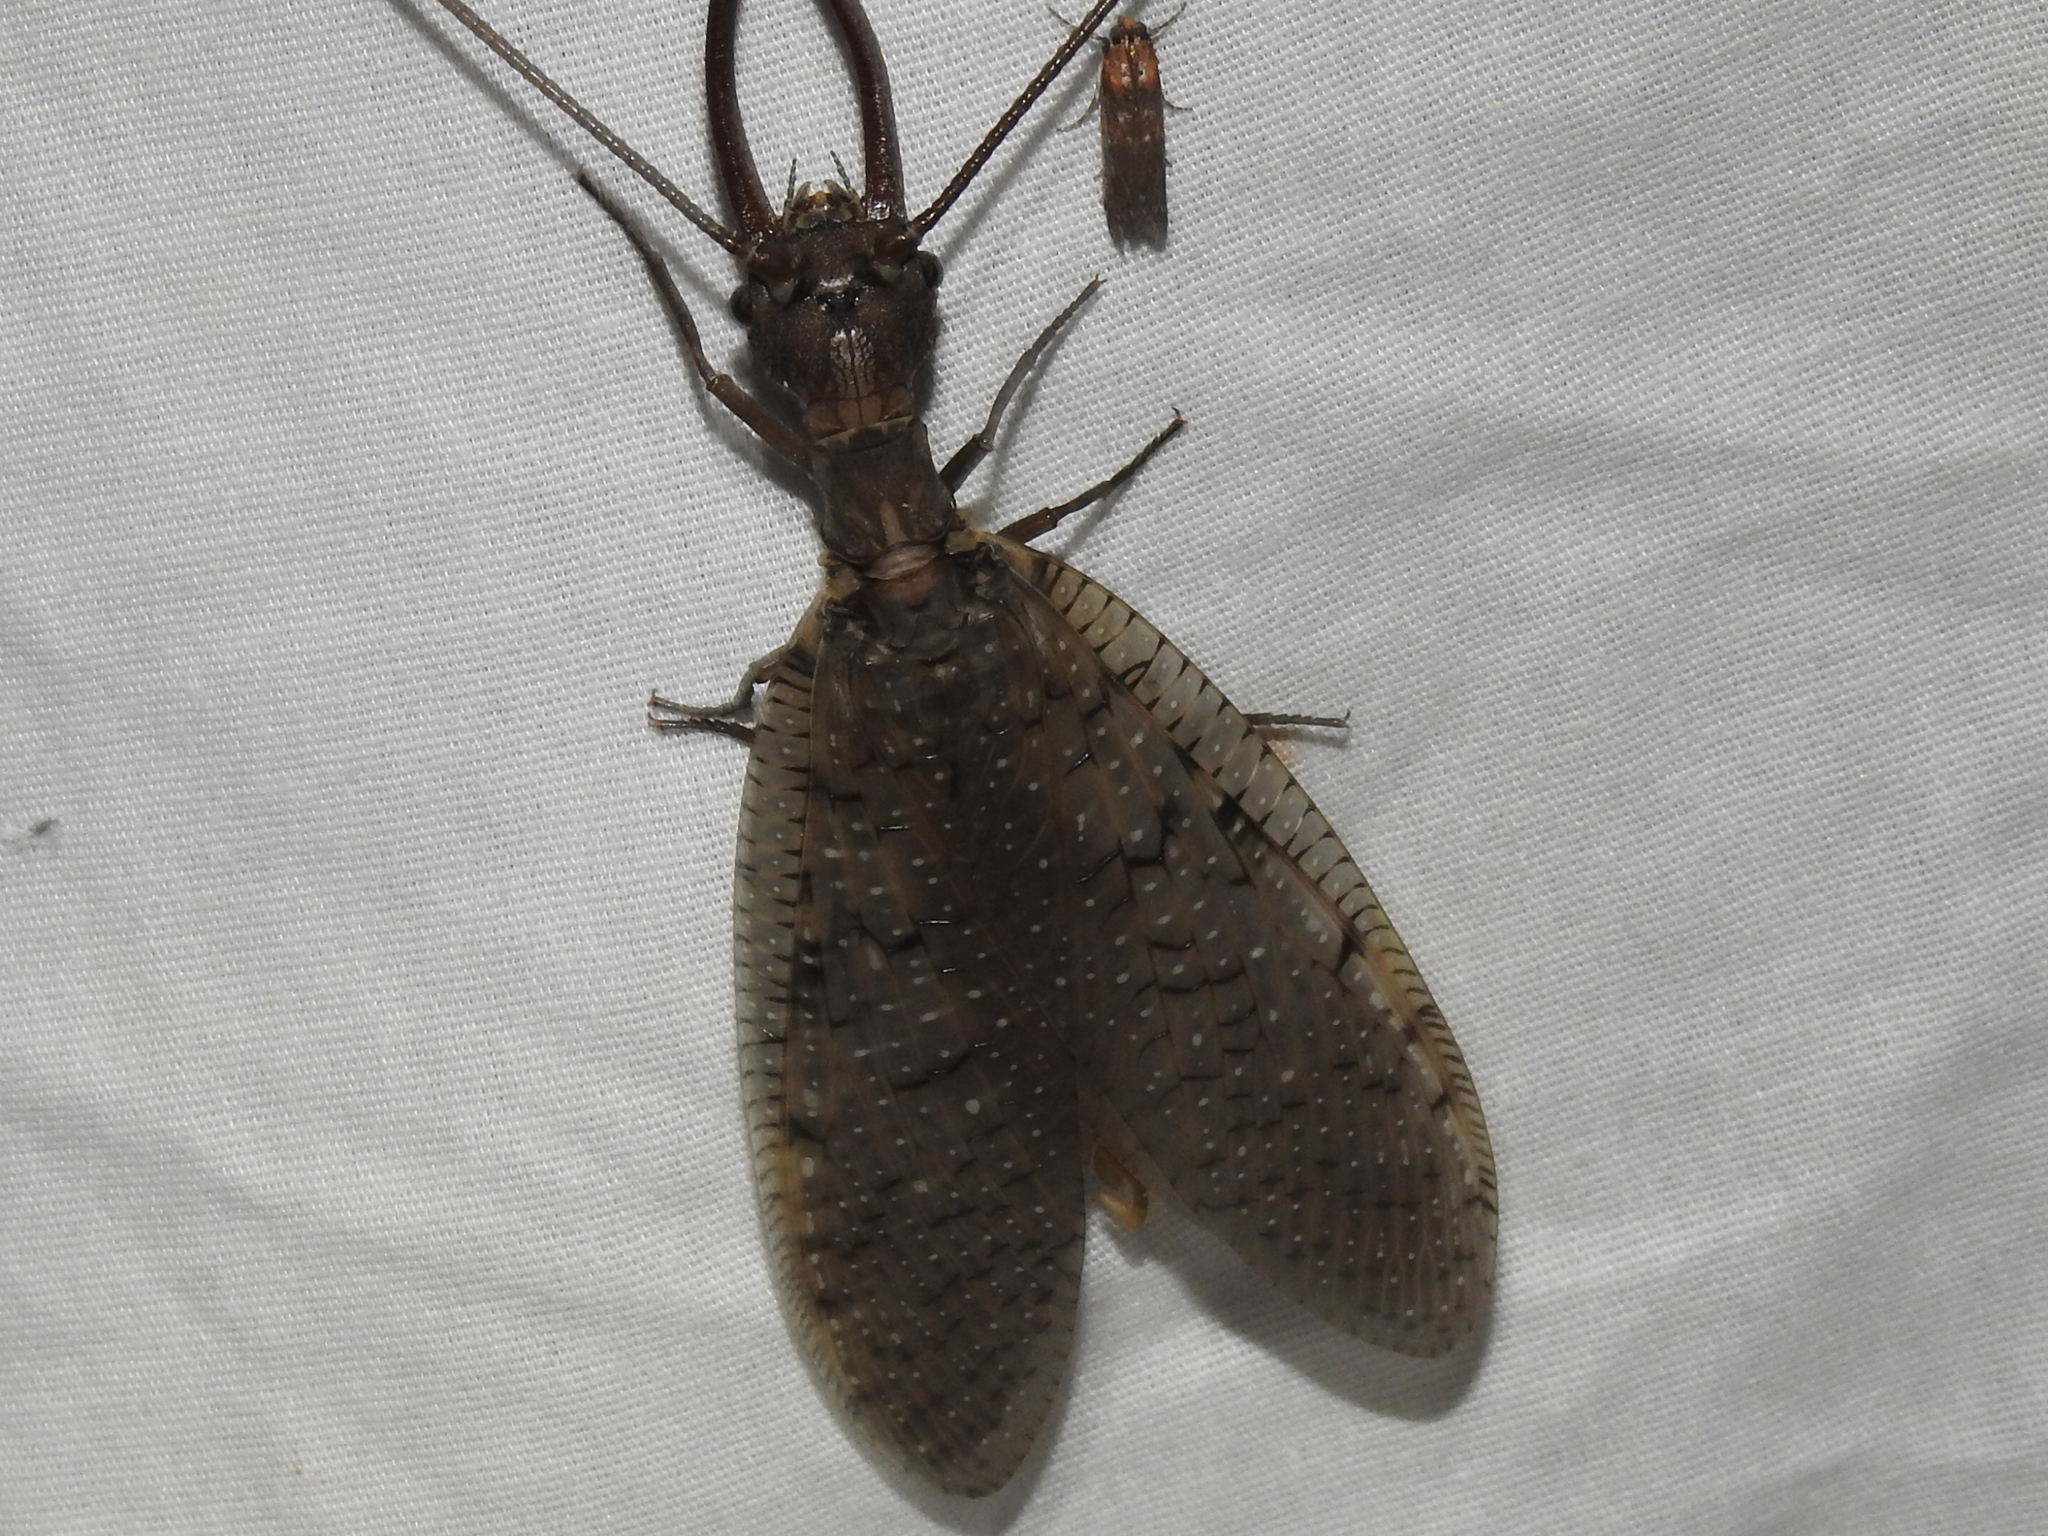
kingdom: Animalia
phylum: Arthropoda
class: Insecta
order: Megaloptera
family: Corydalidae
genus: Corydalus
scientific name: Corydalus cornutus
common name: Dobsonfly
